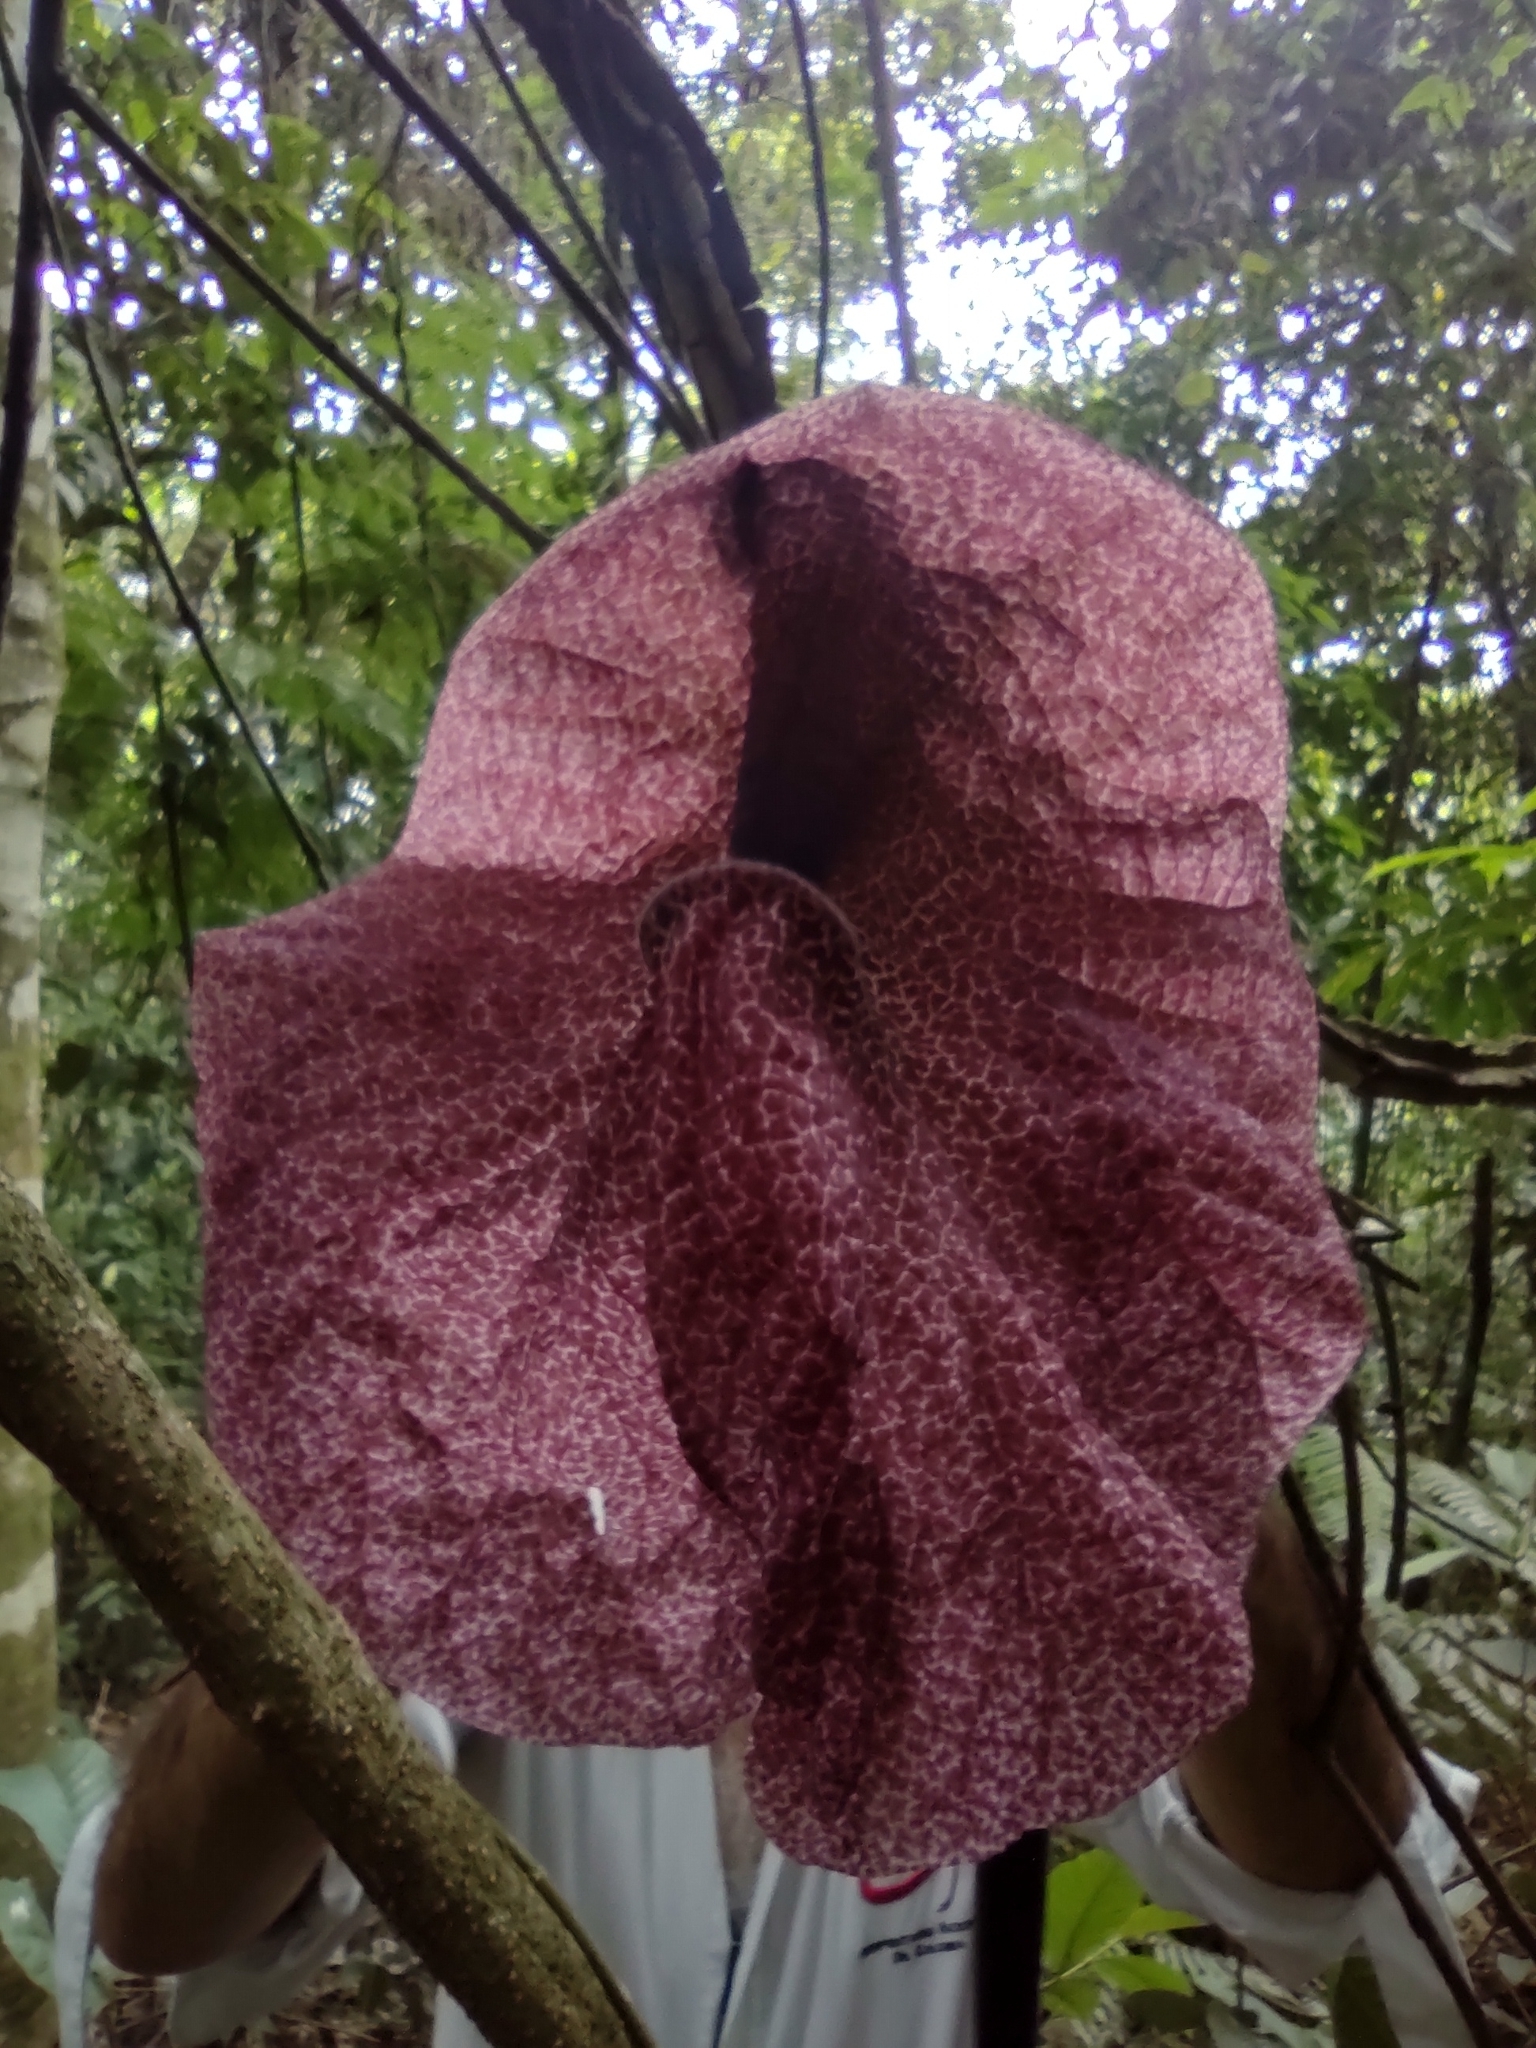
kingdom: Plantae
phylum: Tracheophyta
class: Magnoliopsida
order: Piperales
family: Aristolochiaceae
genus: Aristolochia
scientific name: Aristolochia cordiflora
